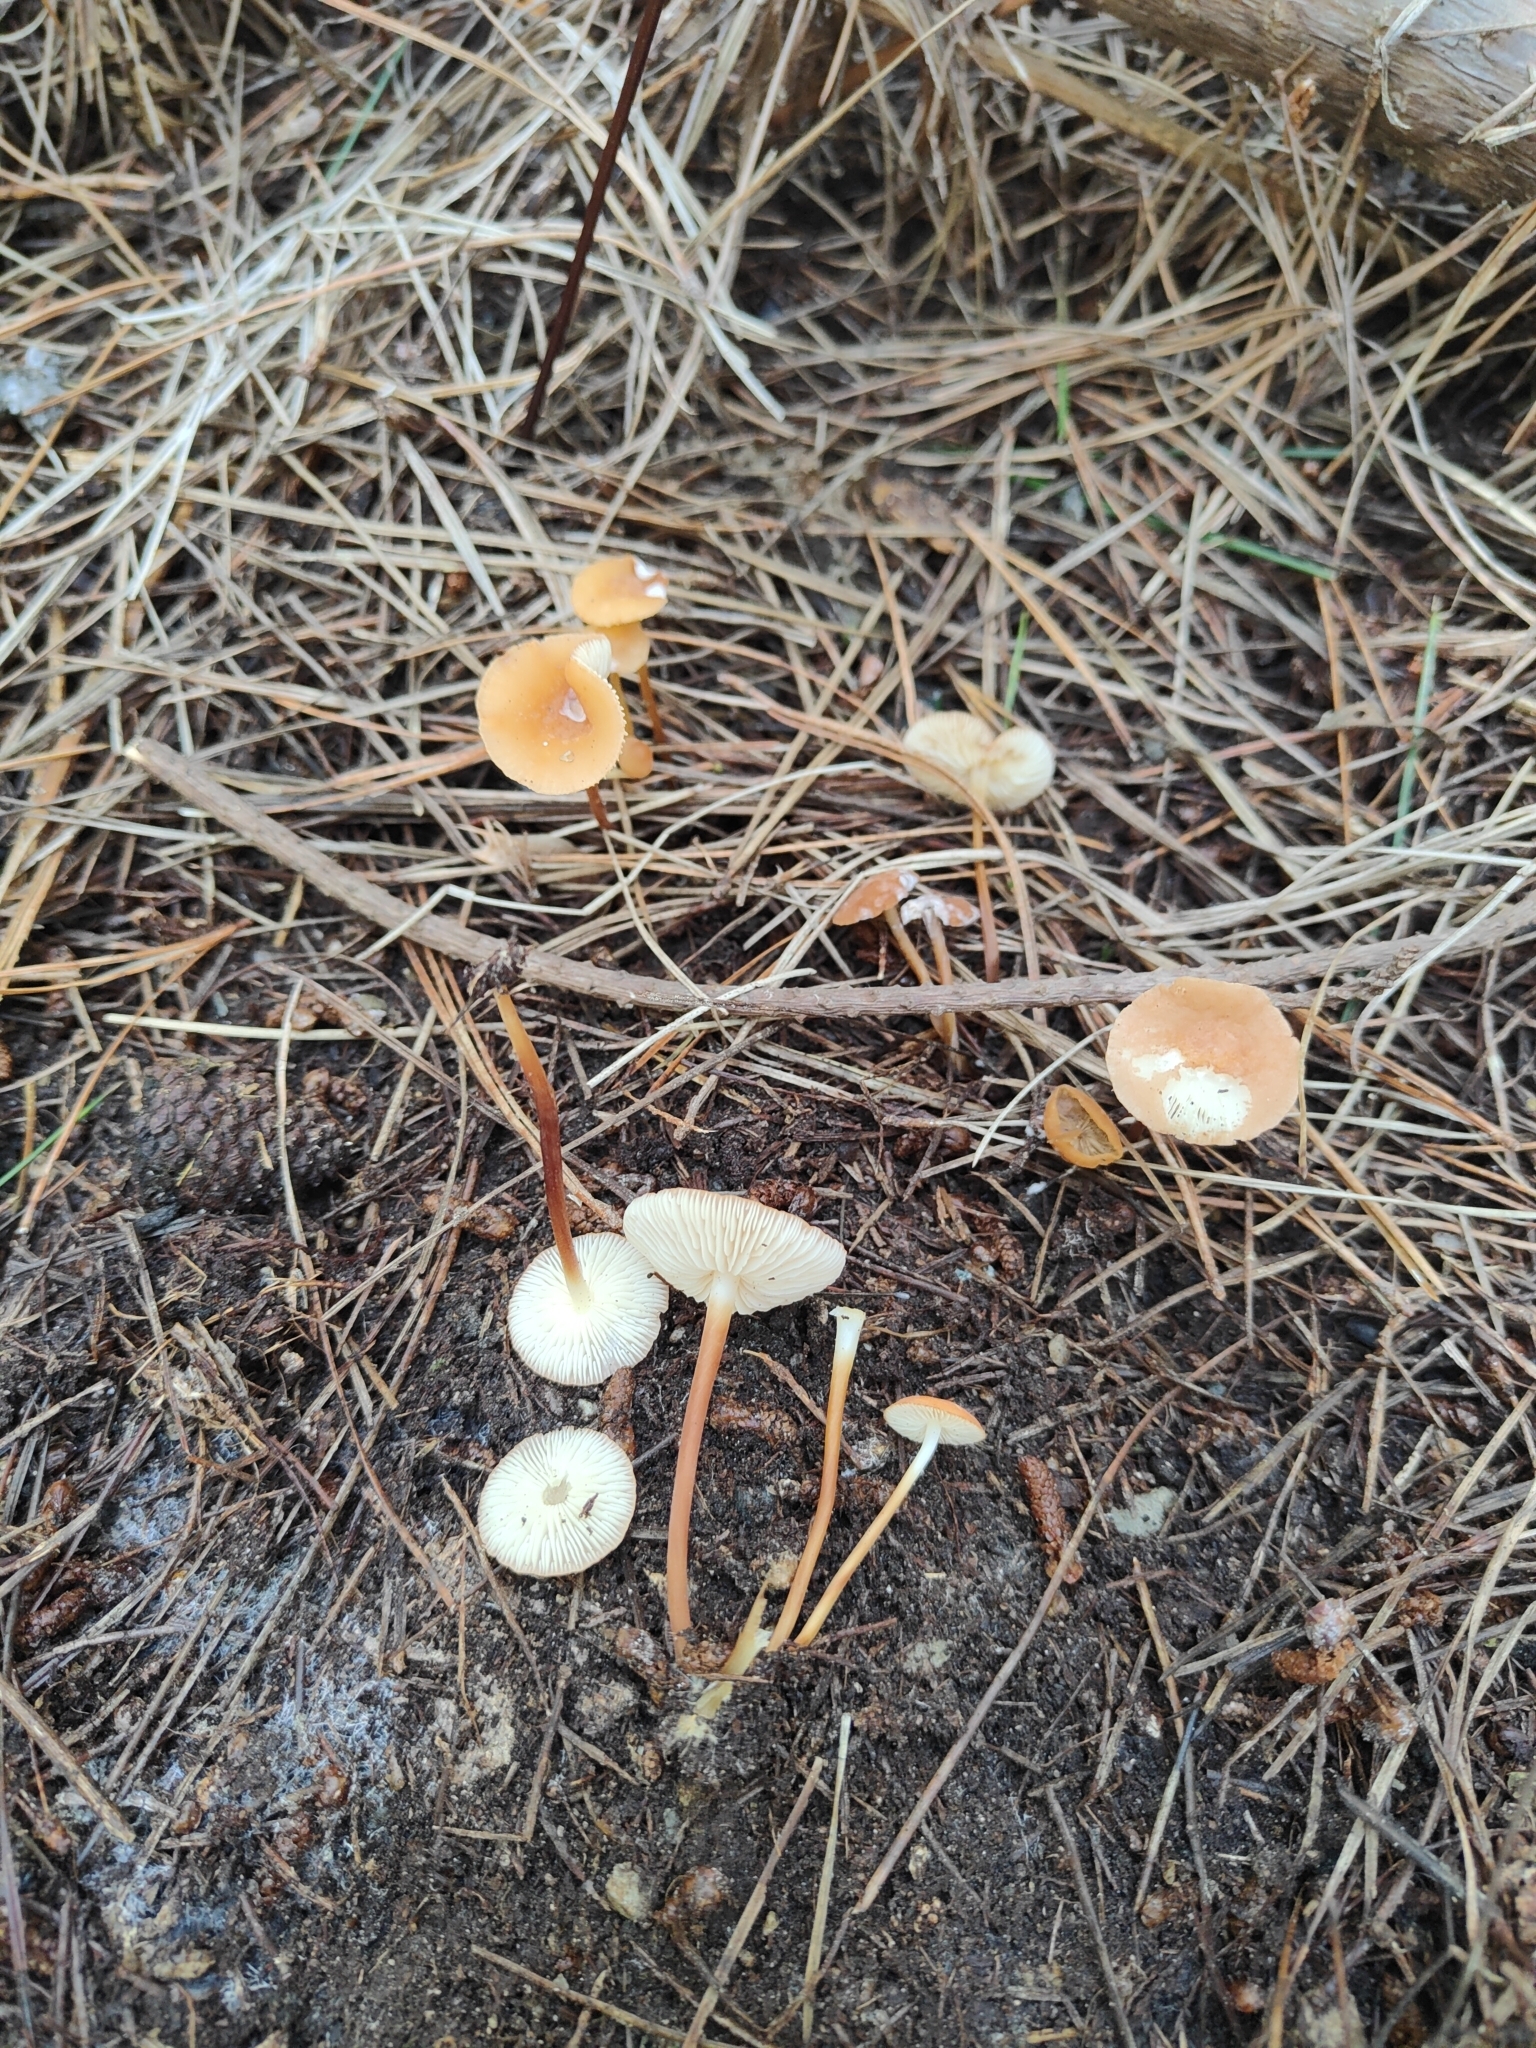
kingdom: Fungi
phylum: Basidiomycota
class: Agaricomycetes
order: Agaricales
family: Marasmiaceae
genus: Marasmius
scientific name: Marasmius elegans
